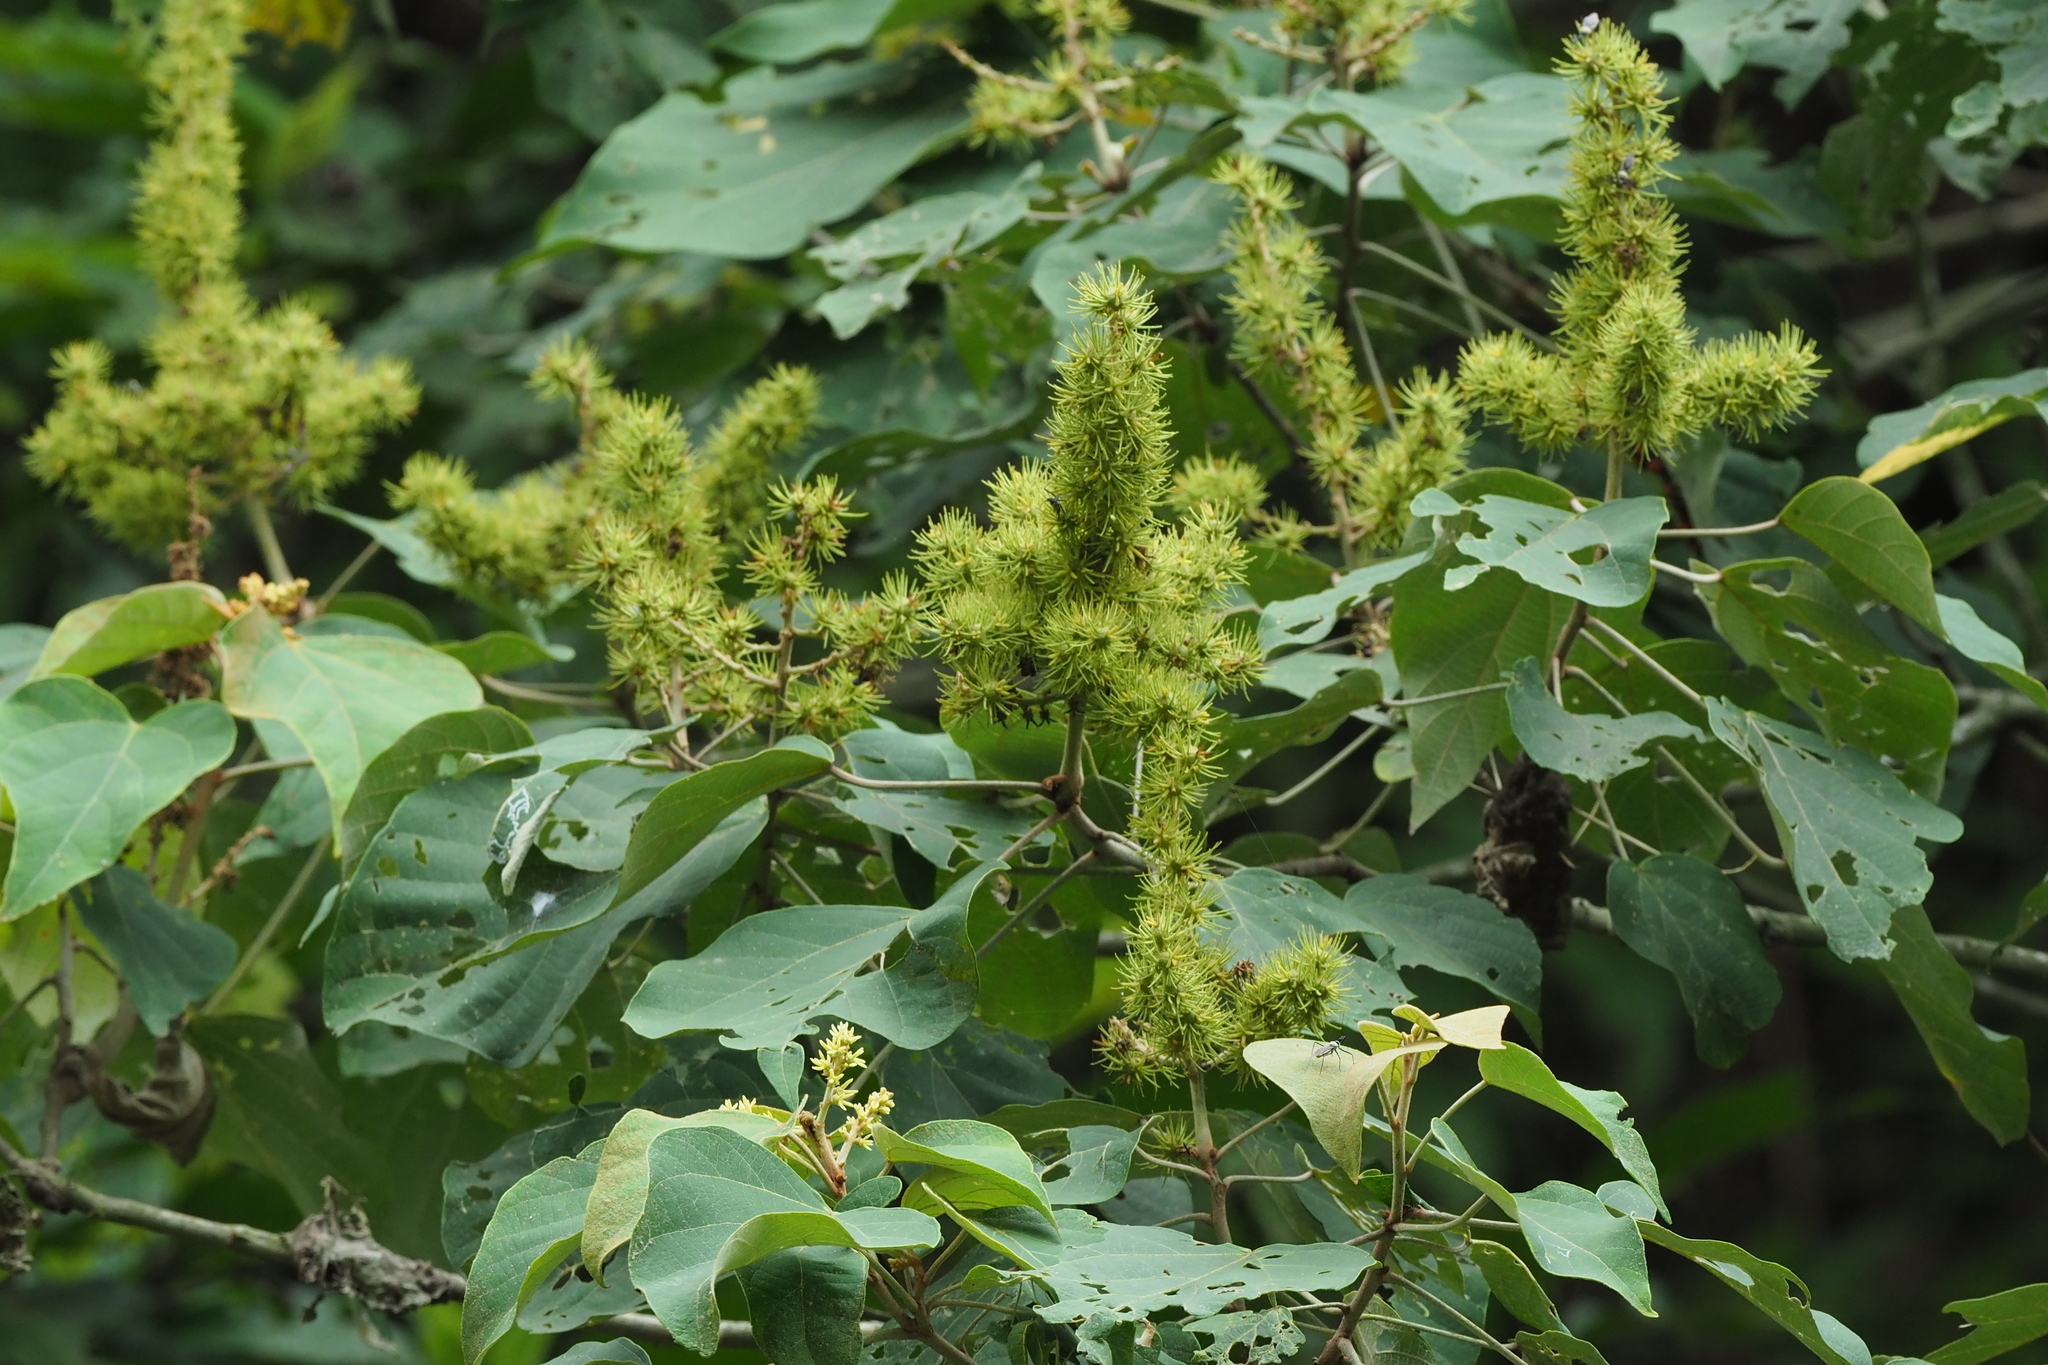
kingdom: Plantae
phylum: Tracheophyta
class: Magnoliopsida
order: Malpighiales
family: Euphorbiaceae
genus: Mallotus
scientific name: Mallotus japonicus
